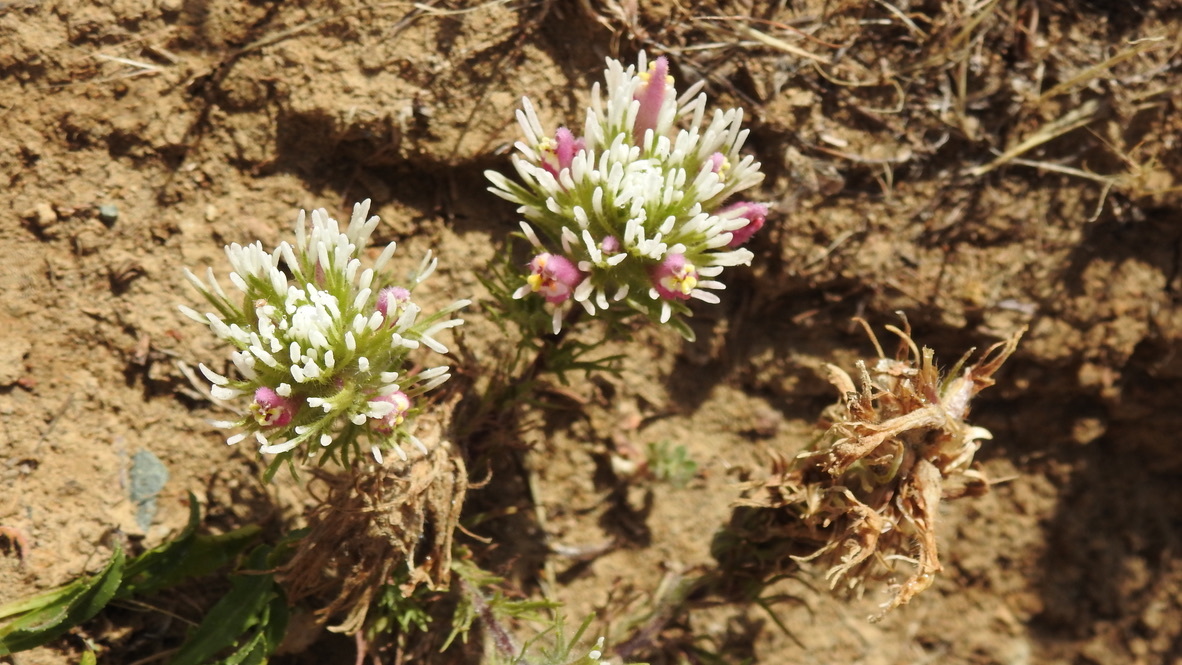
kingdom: Plantae
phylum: Tracheophyta
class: Magnoliopsida
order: Lamiales
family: Orobanchaceae
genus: Castilleja
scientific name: Castilleja exserta
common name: Purple owl-clover
